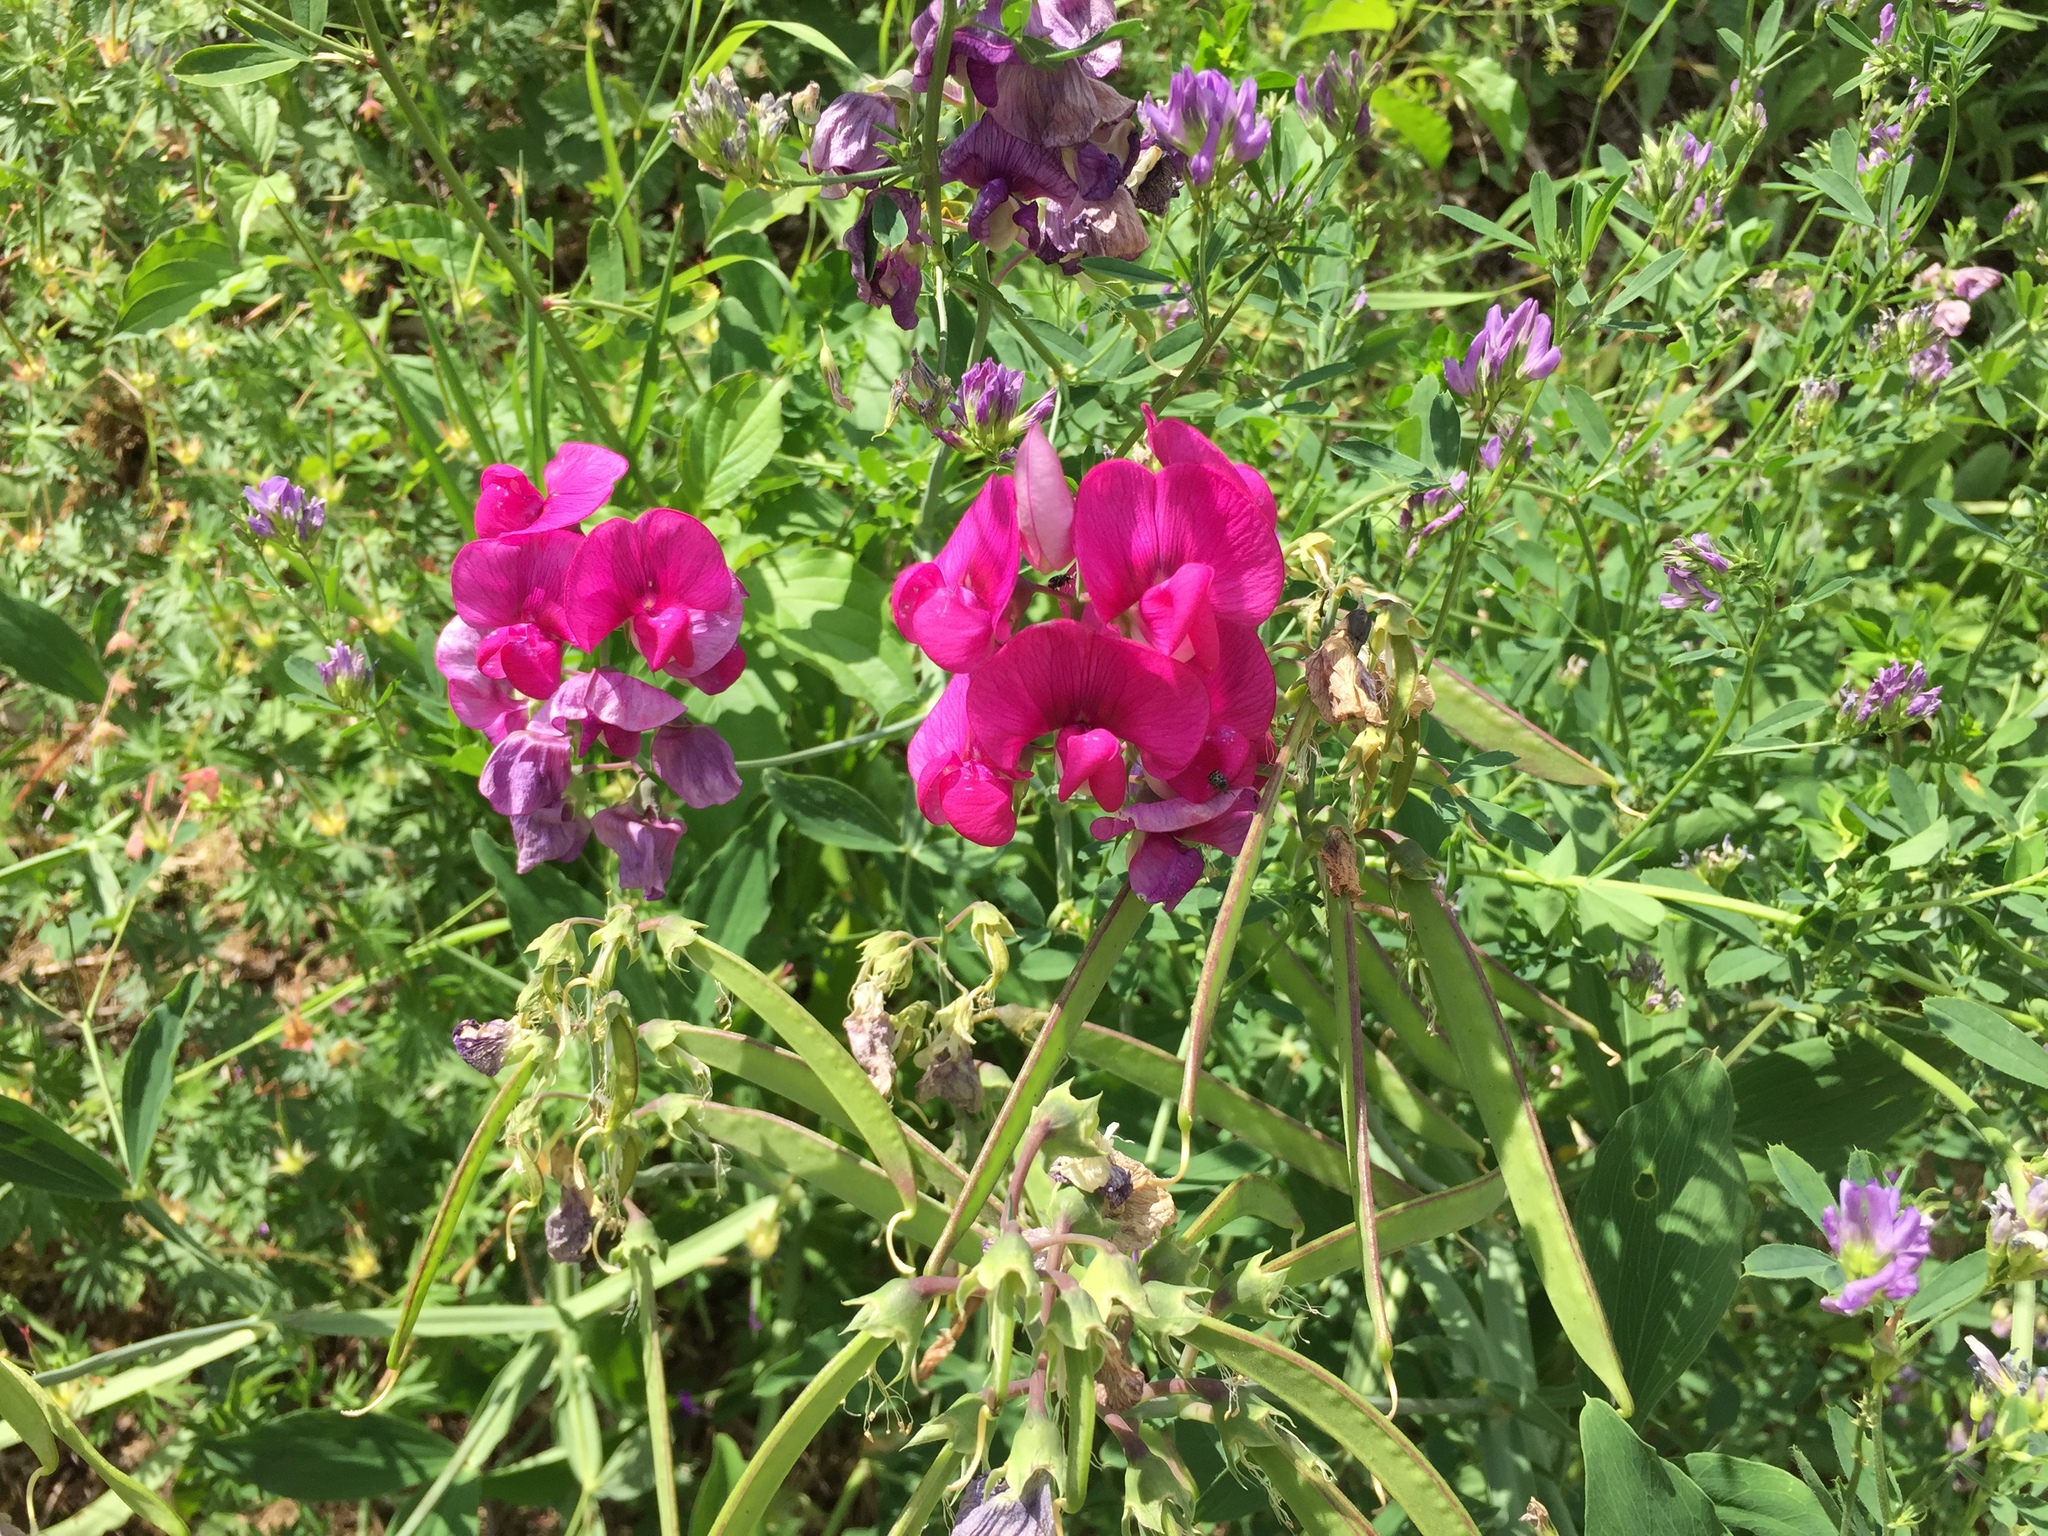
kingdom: Plantae
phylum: Tracheophyta
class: Magnoliopsida
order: Fabales
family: Fabaceae
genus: Lathyrus
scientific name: Lathyrus latifolius
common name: Perennial pea
